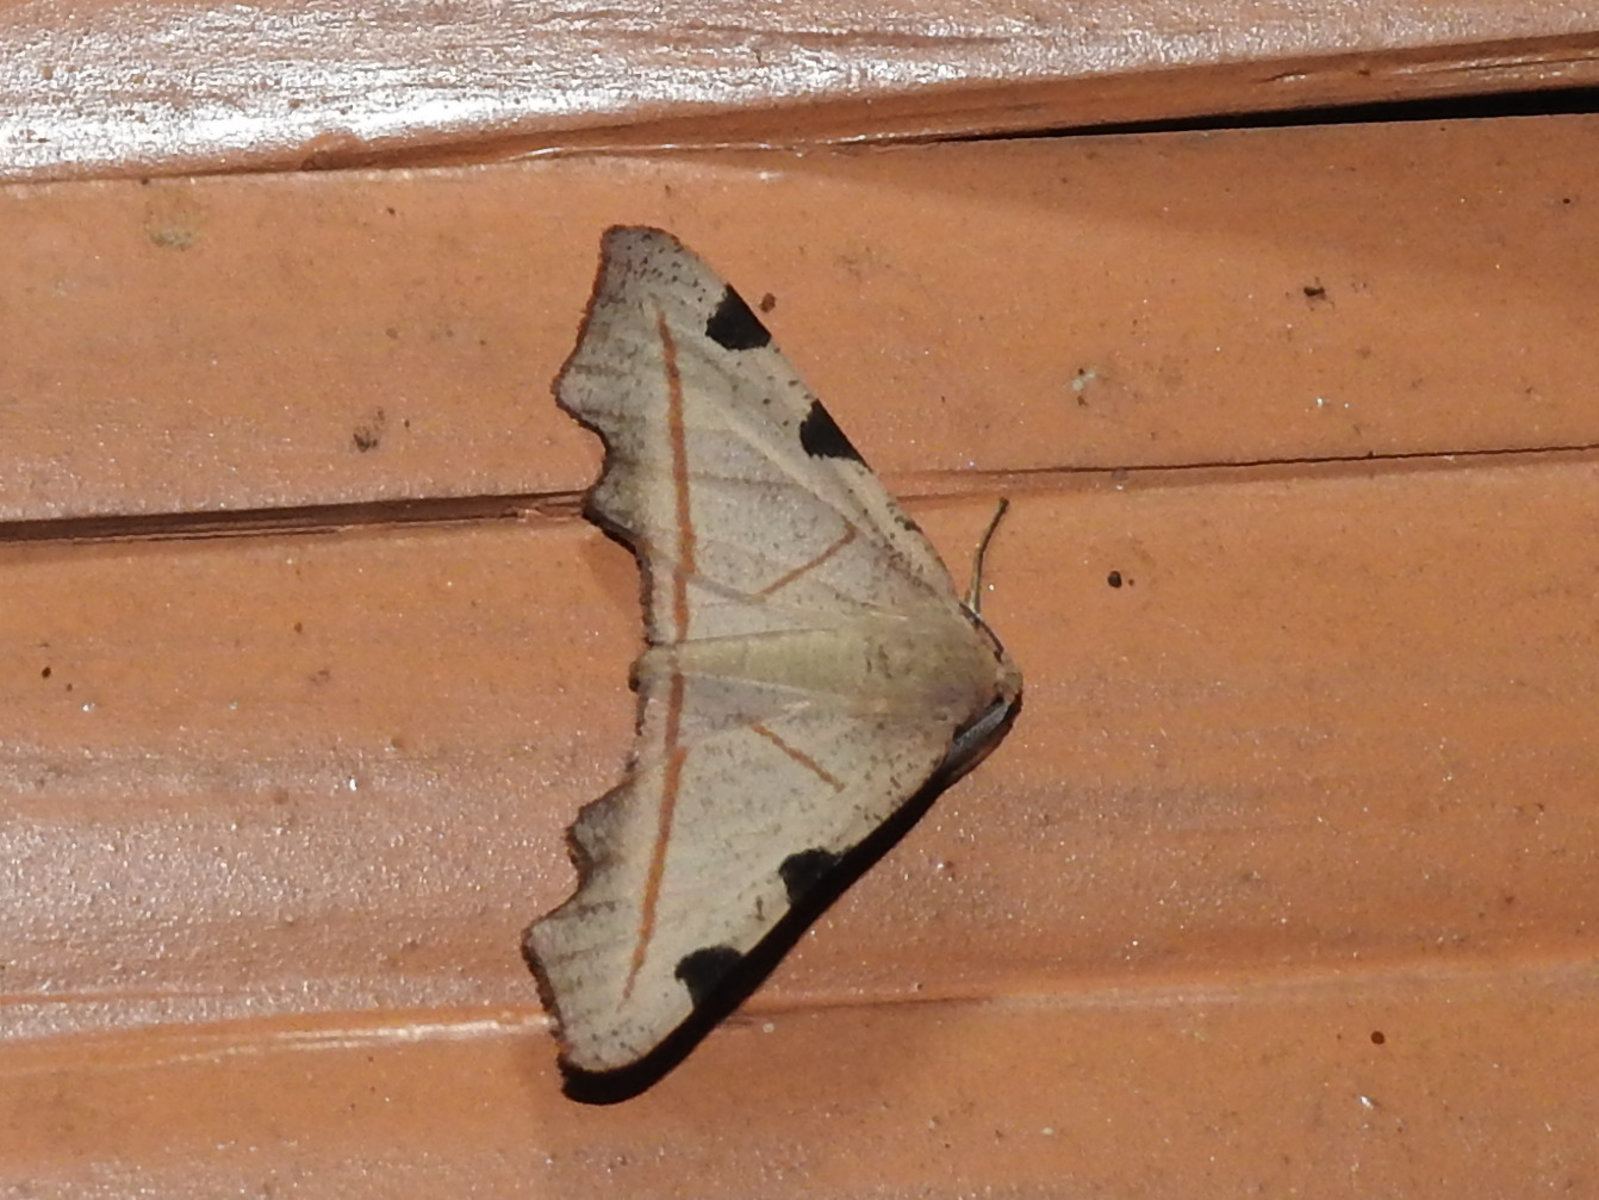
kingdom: Animalia
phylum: Arthropoda
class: Insecta
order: Lepidoptera
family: Geometridae
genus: Achrosis
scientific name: Achrosis rufescens
